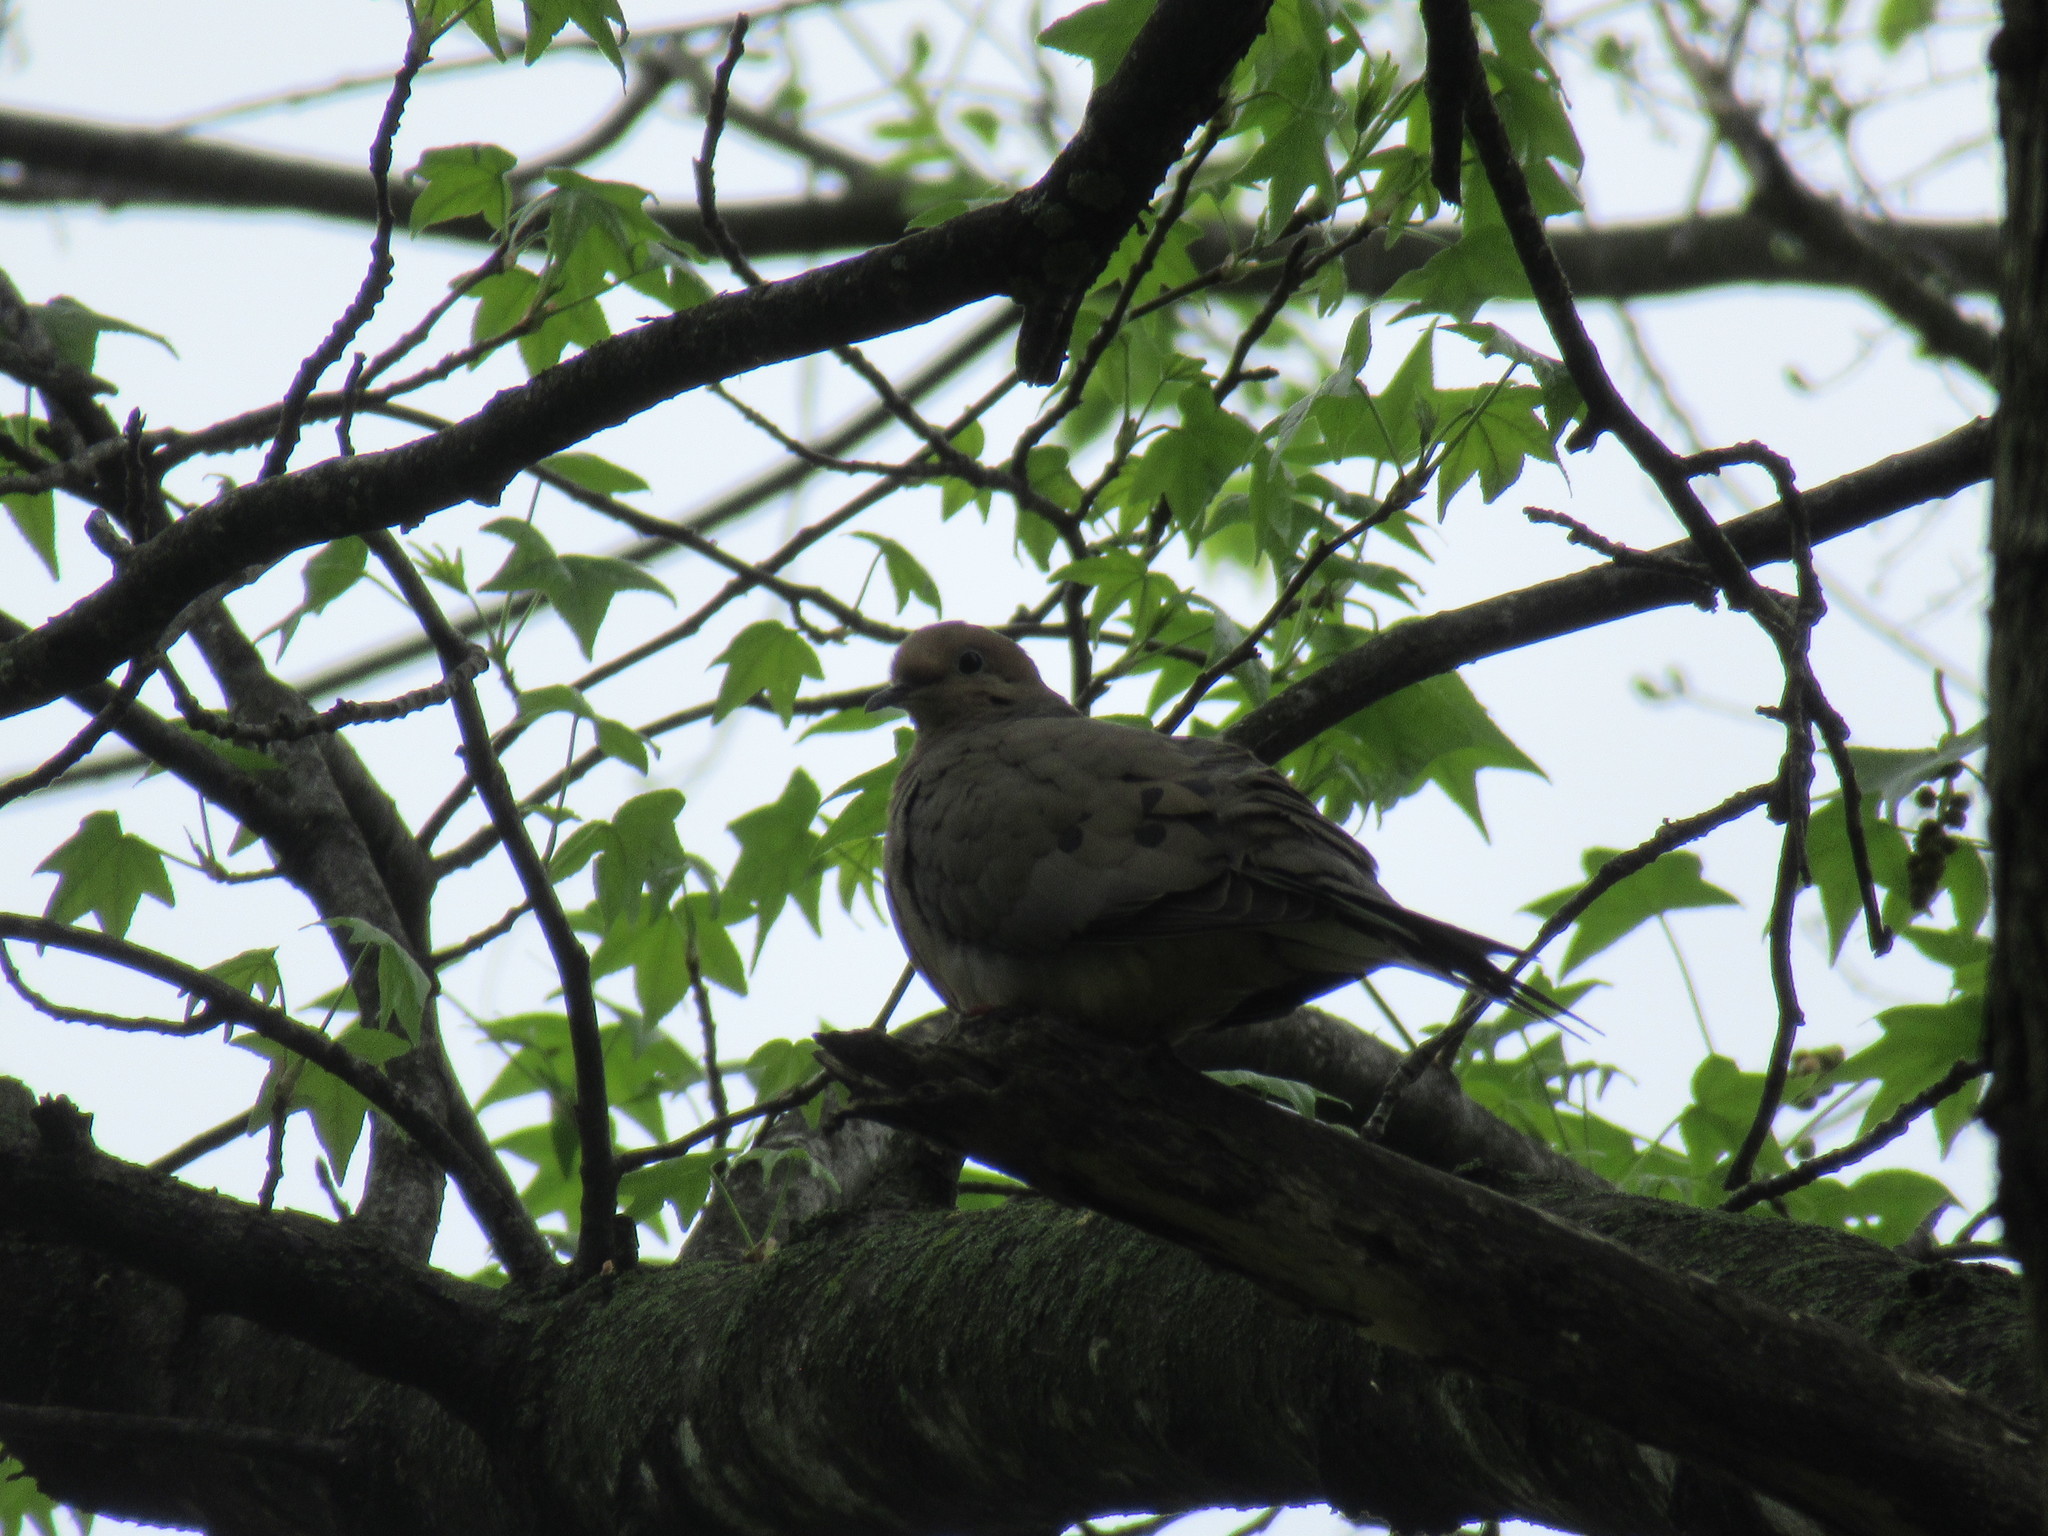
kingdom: Animalia
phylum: Chordata
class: Aves
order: Columbiformes
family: Columbidae
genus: Zenaida
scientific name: Zenaida macroura
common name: Mourning dove
